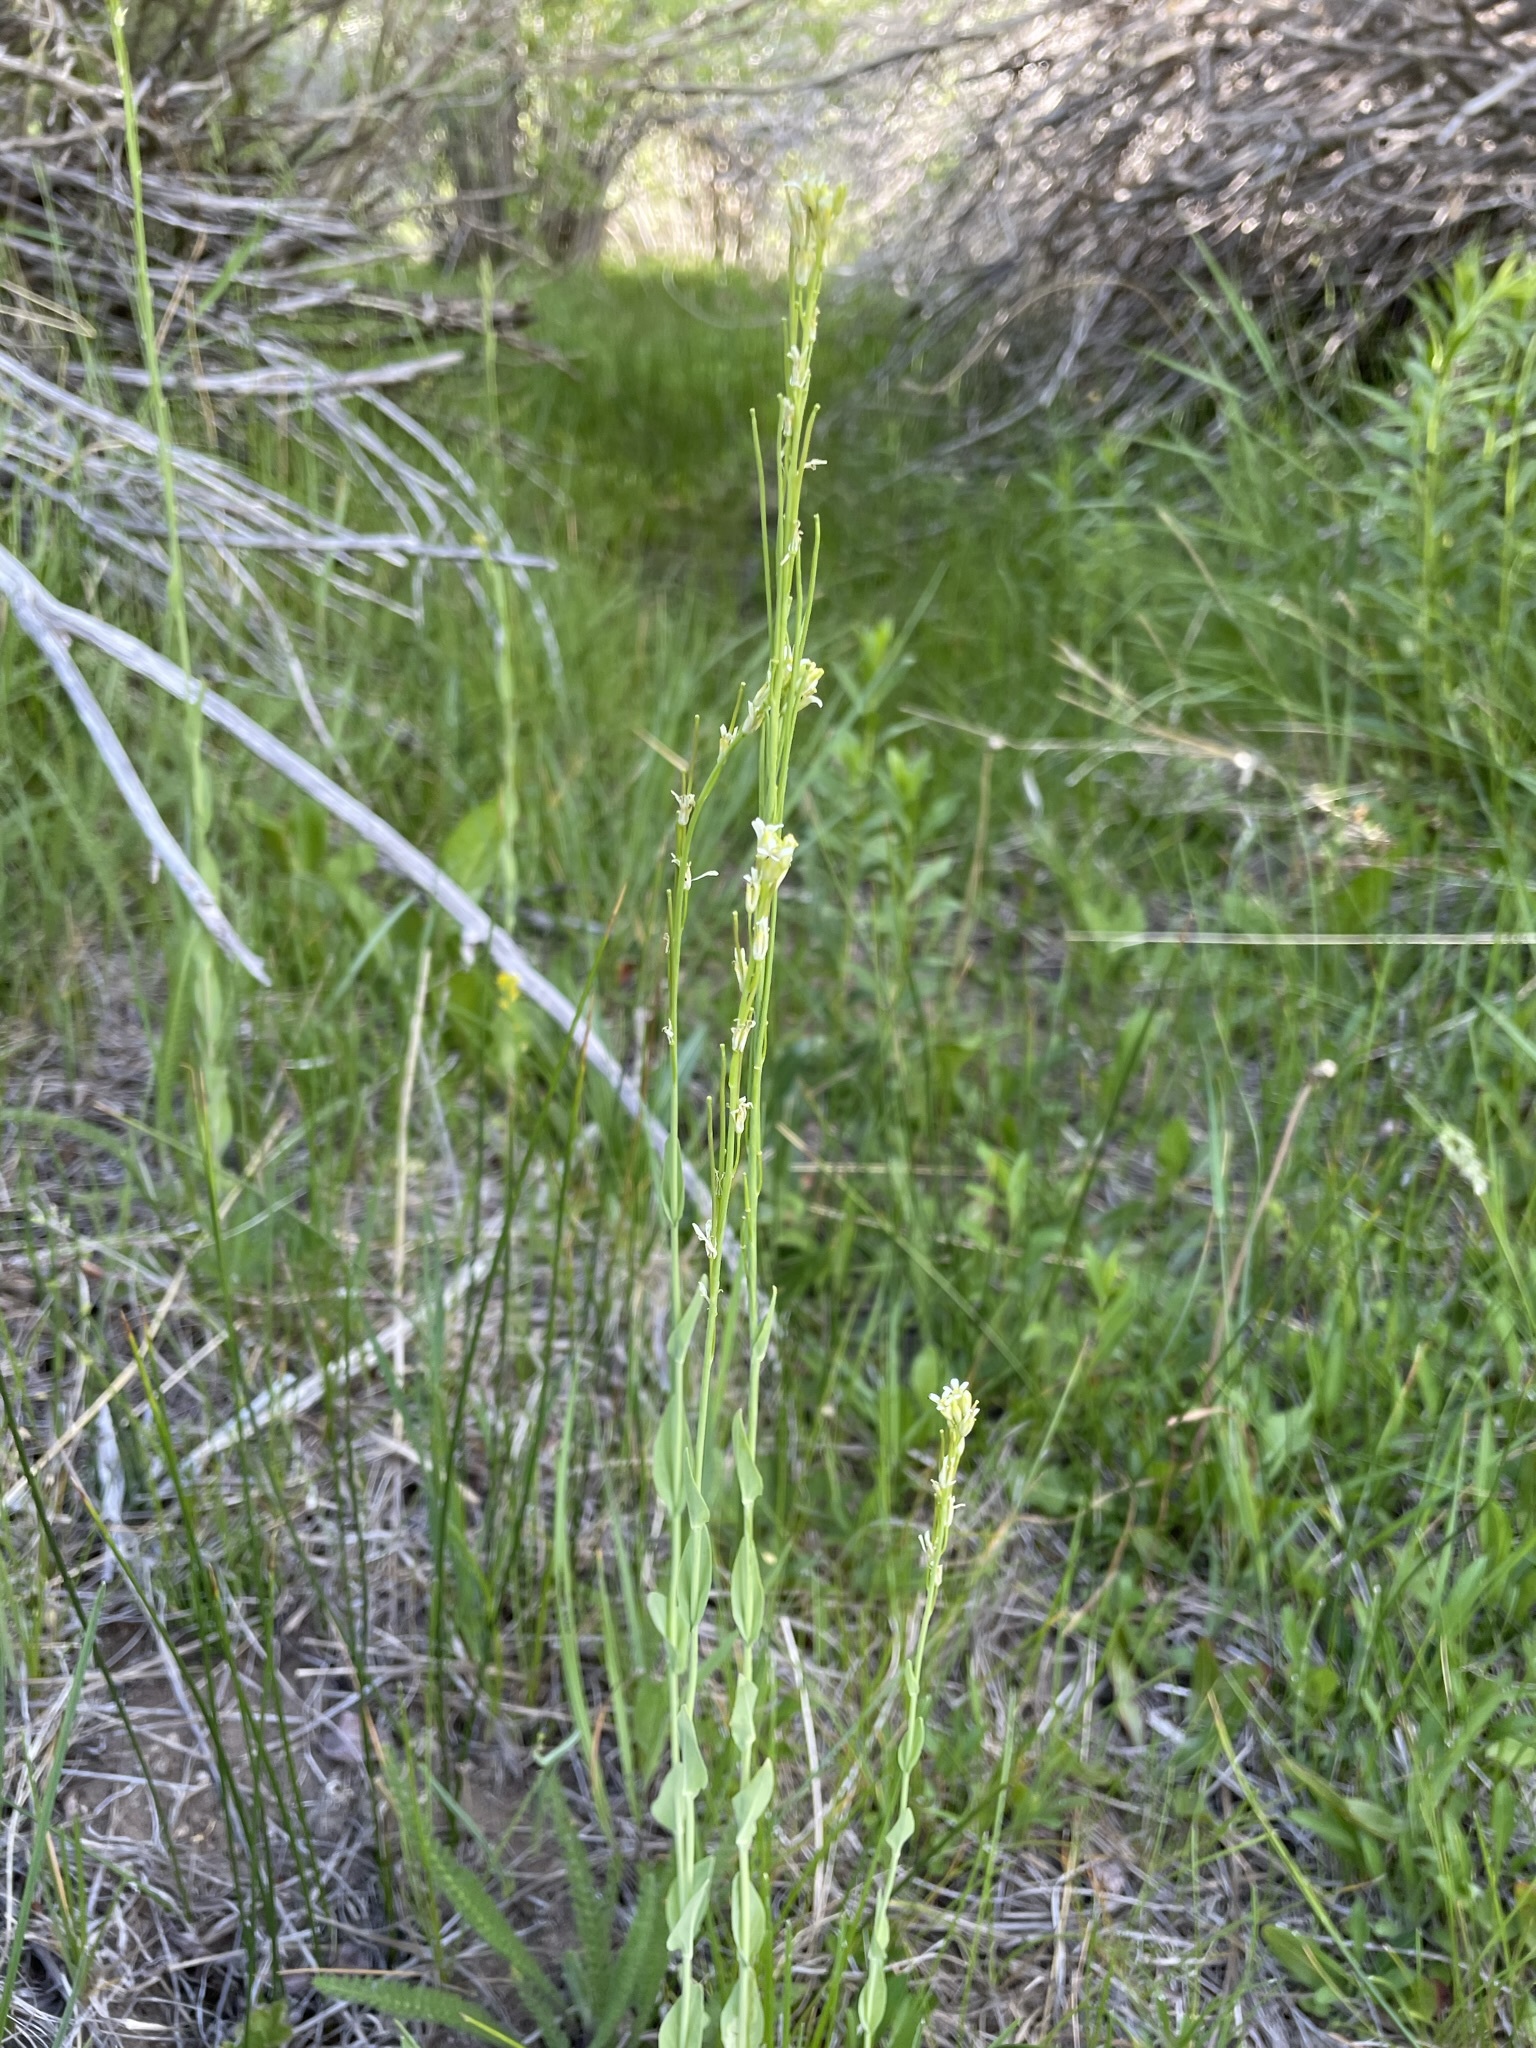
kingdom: Plantae
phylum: Tracheophyta
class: Magnoliopsida
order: Brassicales
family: Brassicaceae
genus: Turritis
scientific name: Turritis glabra
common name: Tower rockcress
